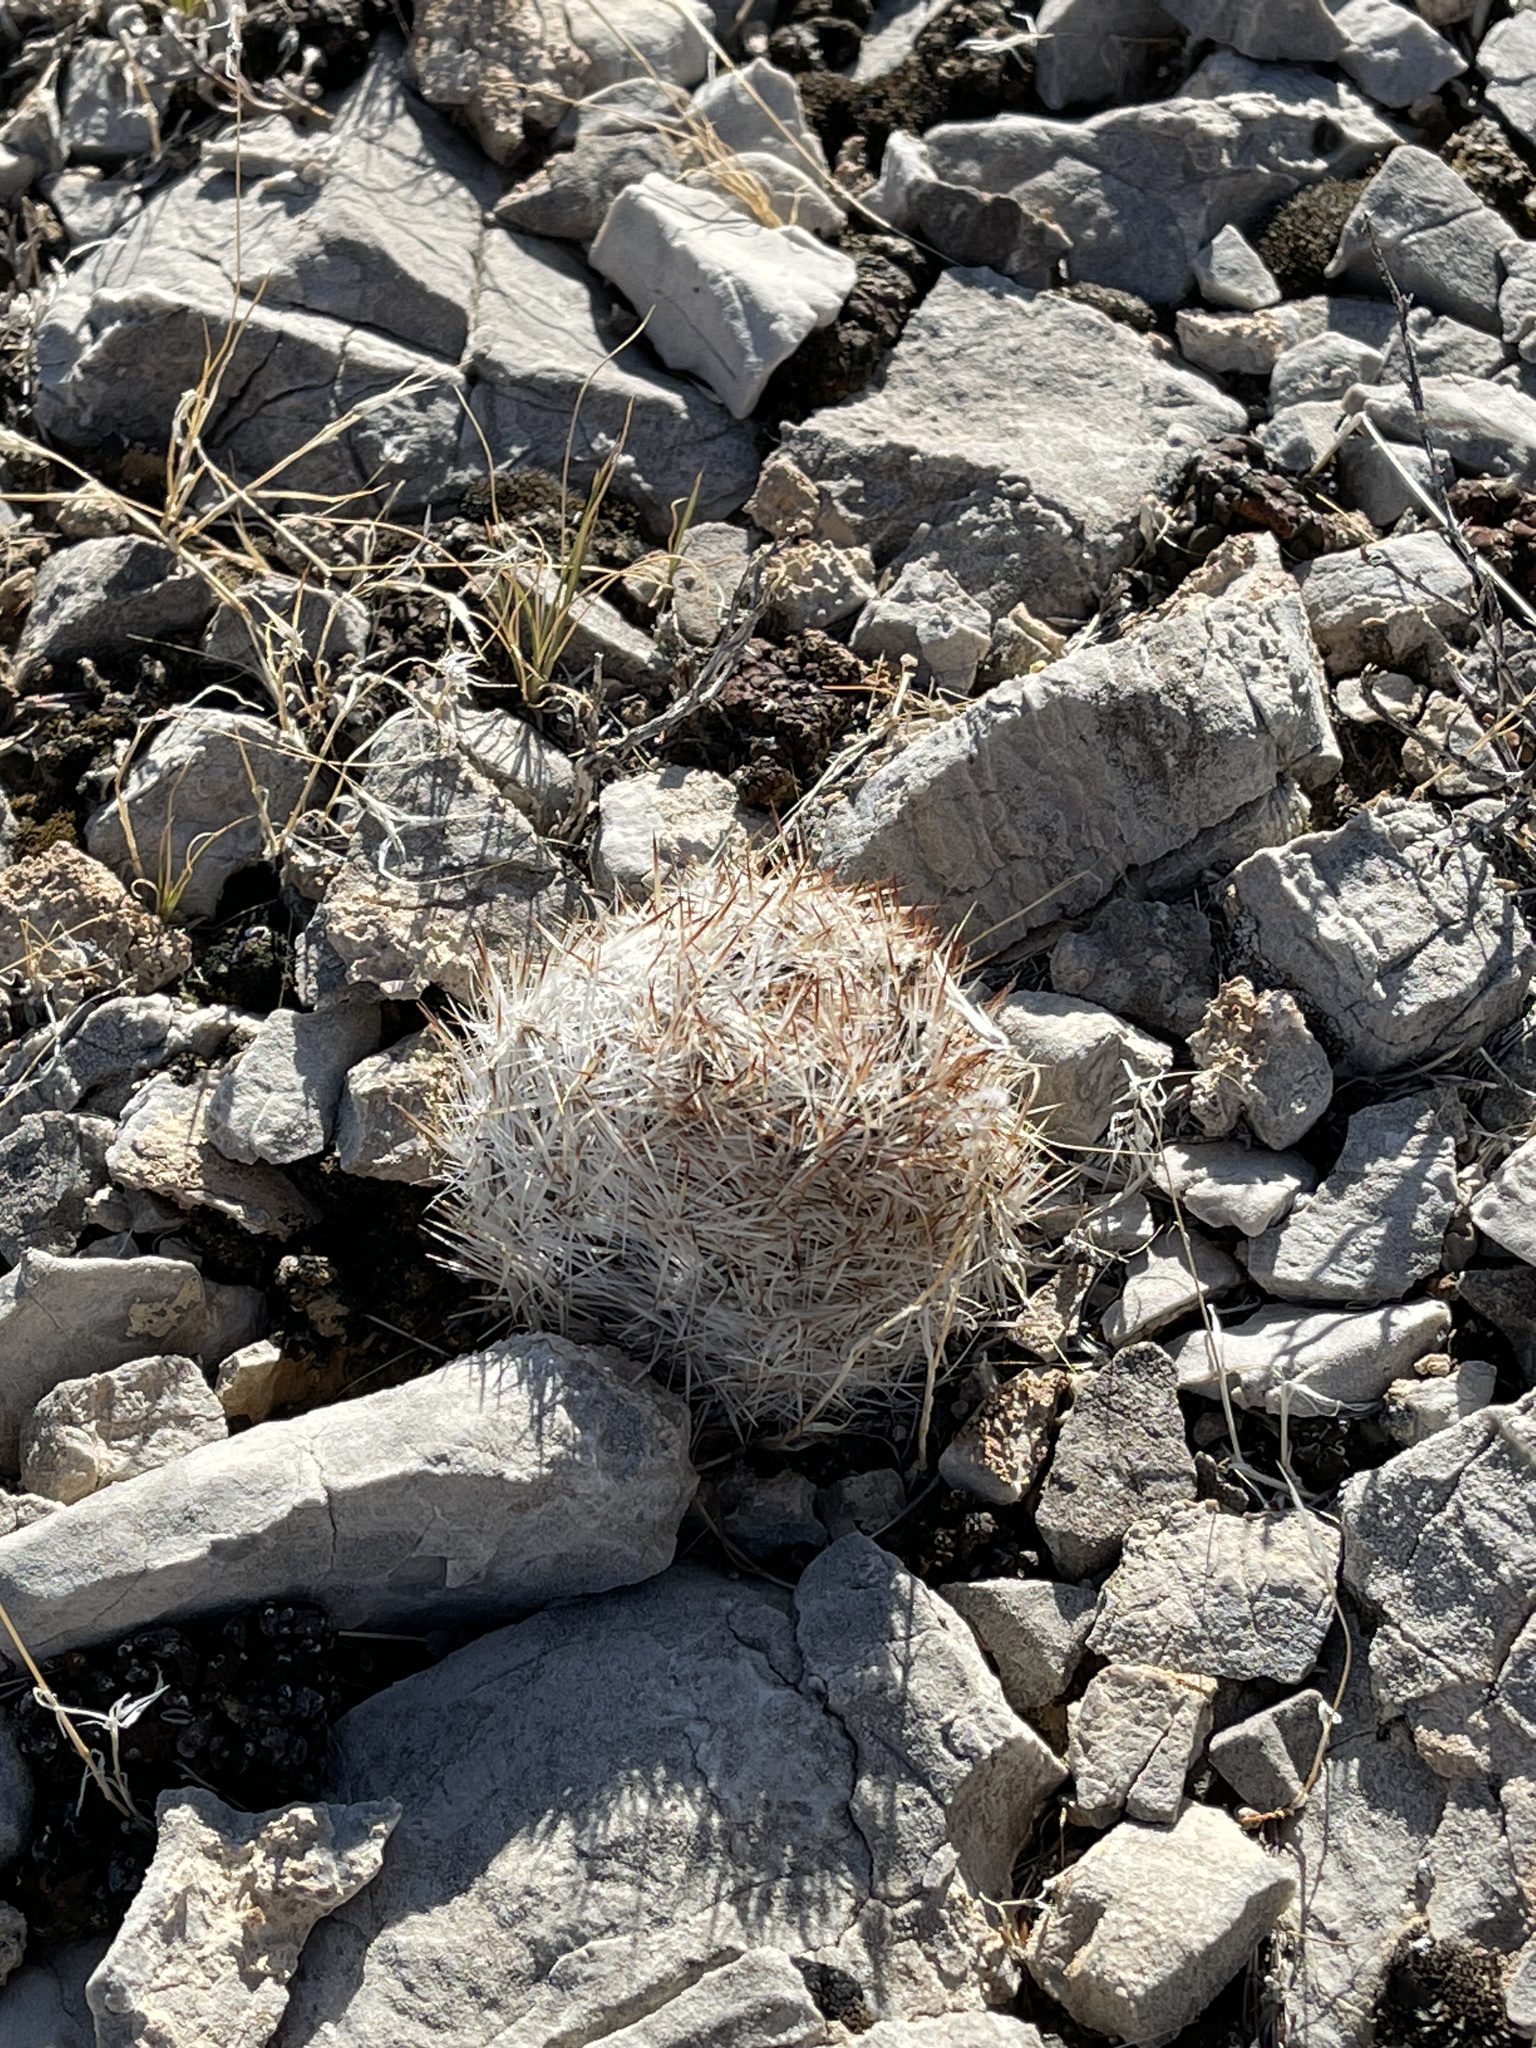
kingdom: Plantae
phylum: Tracheophyta
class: Magnoliopsida
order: Caryophyllales
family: Cactaceae
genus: Pelecyphora
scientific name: Pelecyphora vivipara
